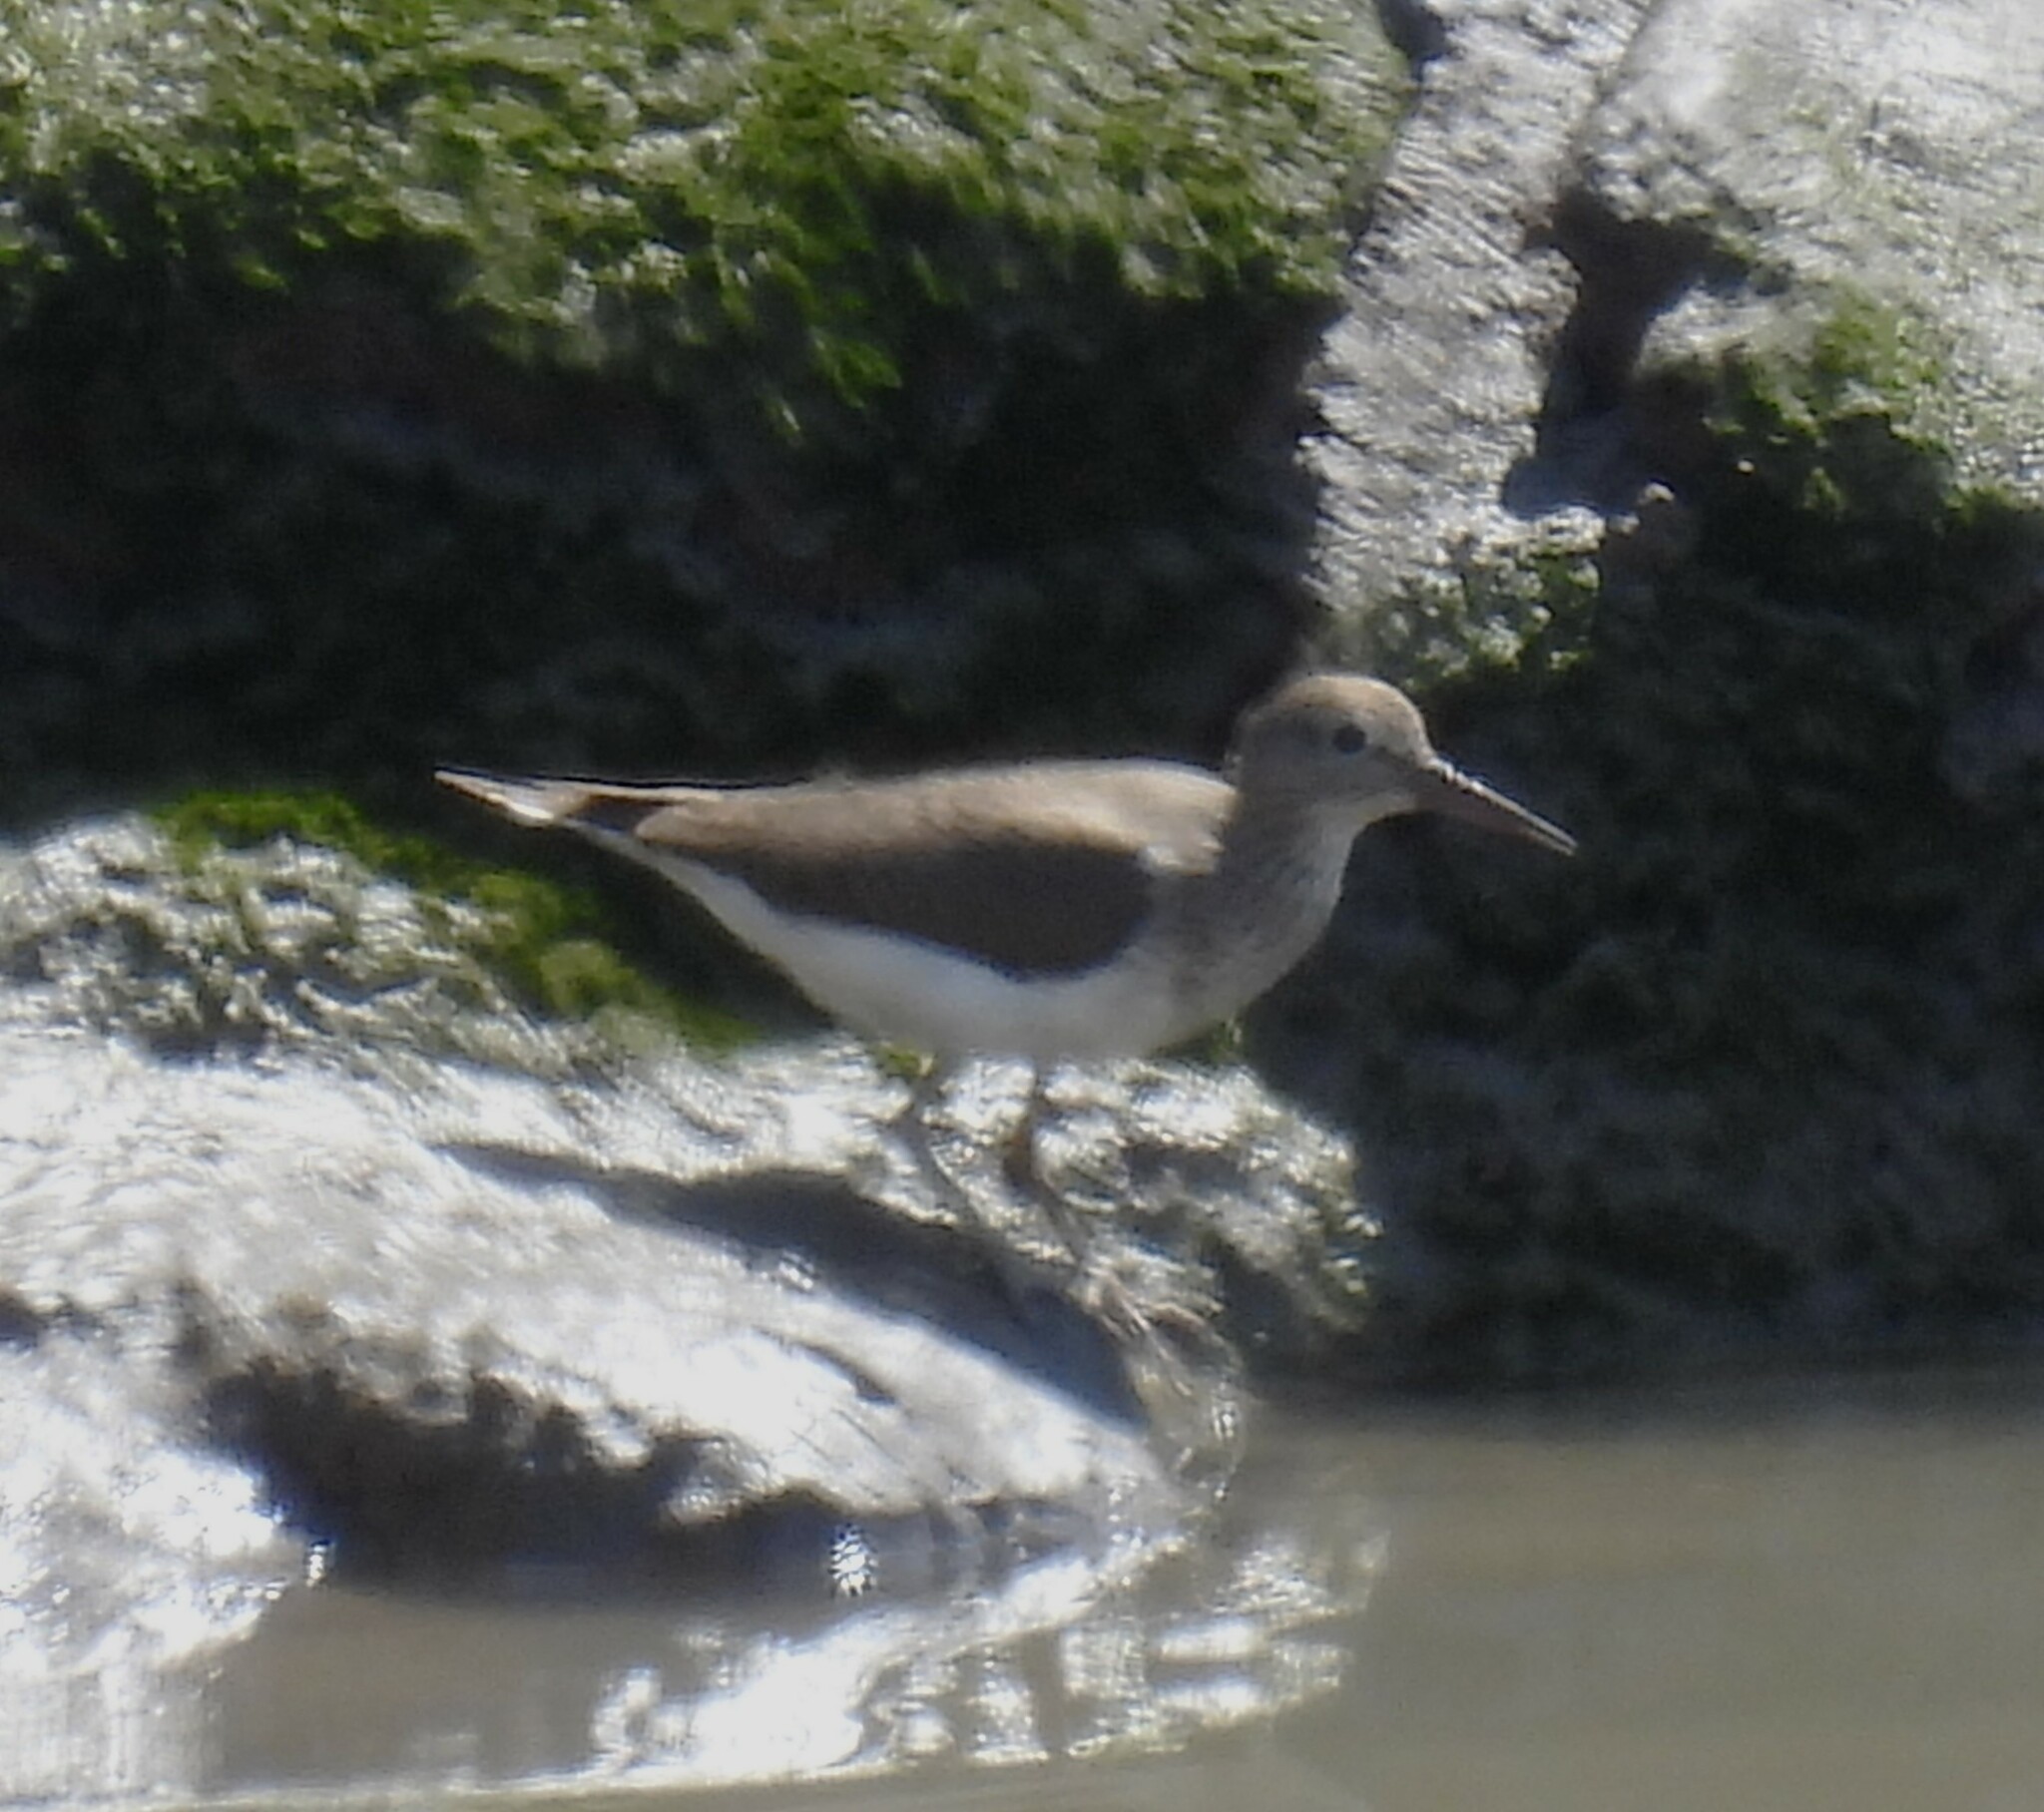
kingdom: Animalia
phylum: Chordata
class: Aves
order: Charadriiformes
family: Scolopacidae
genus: Actitis
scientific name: Actitis hypoleucos
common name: Common sandpiper
